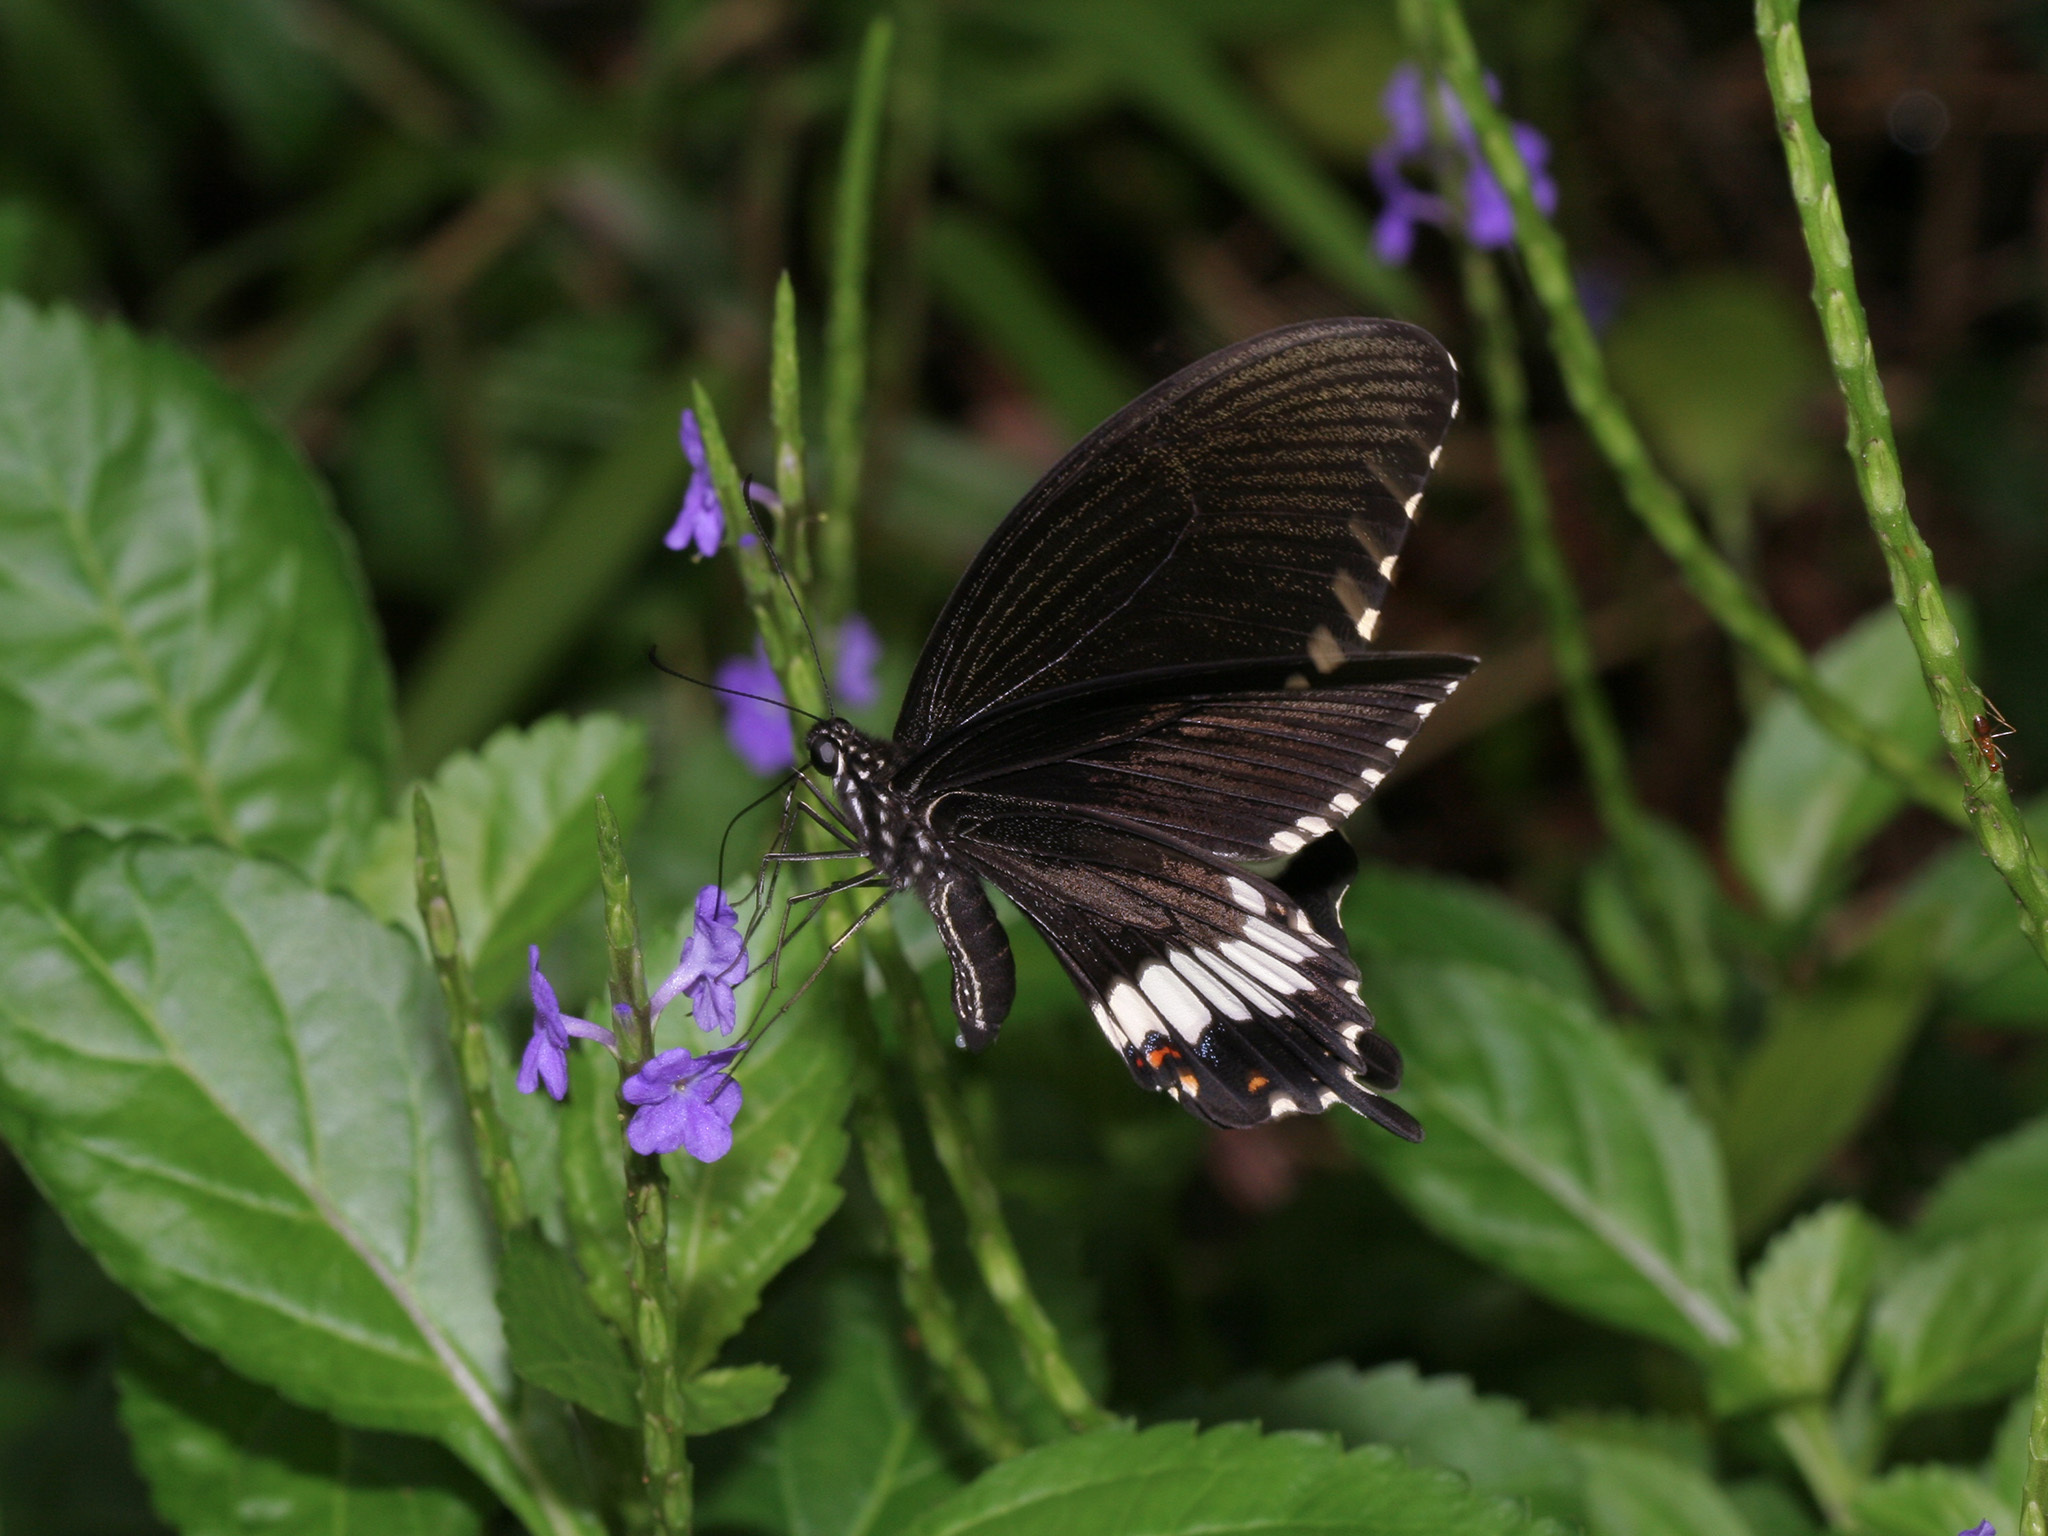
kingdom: Animalia
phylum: Arthropoda
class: Insecta
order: Lepidoptera
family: Papilionidae
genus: Papilio
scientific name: Papilio polytes
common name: Common mormon
